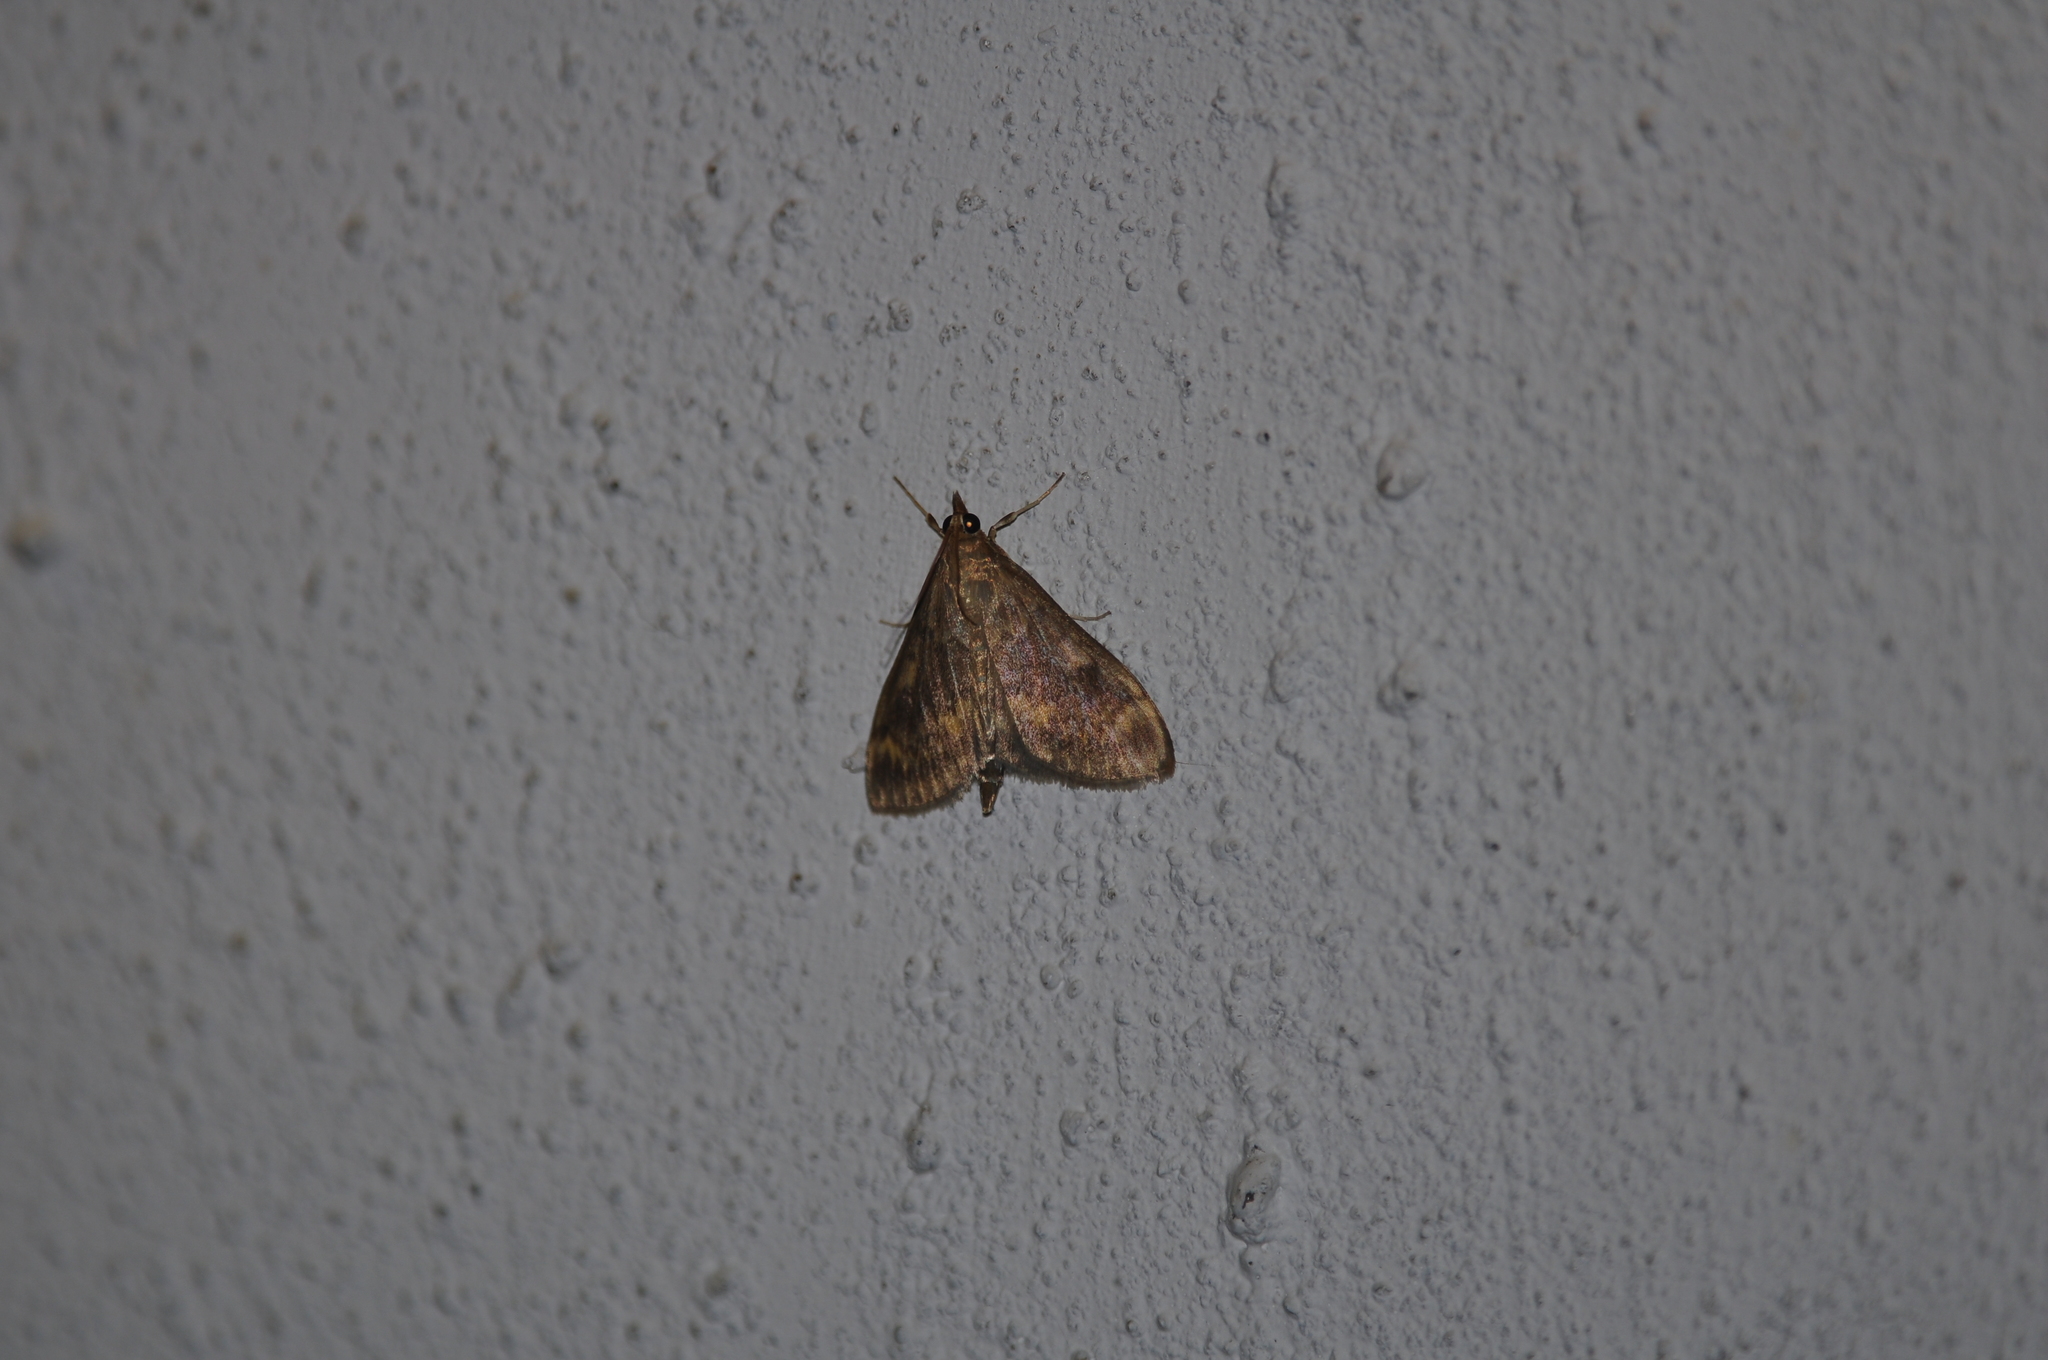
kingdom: Animalia
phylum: Arthropoda
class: Insecta
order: Lepidoptera
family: Crambidae
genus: Ostrinia
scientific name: Ostrinia nubilalis
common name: European corn borer
